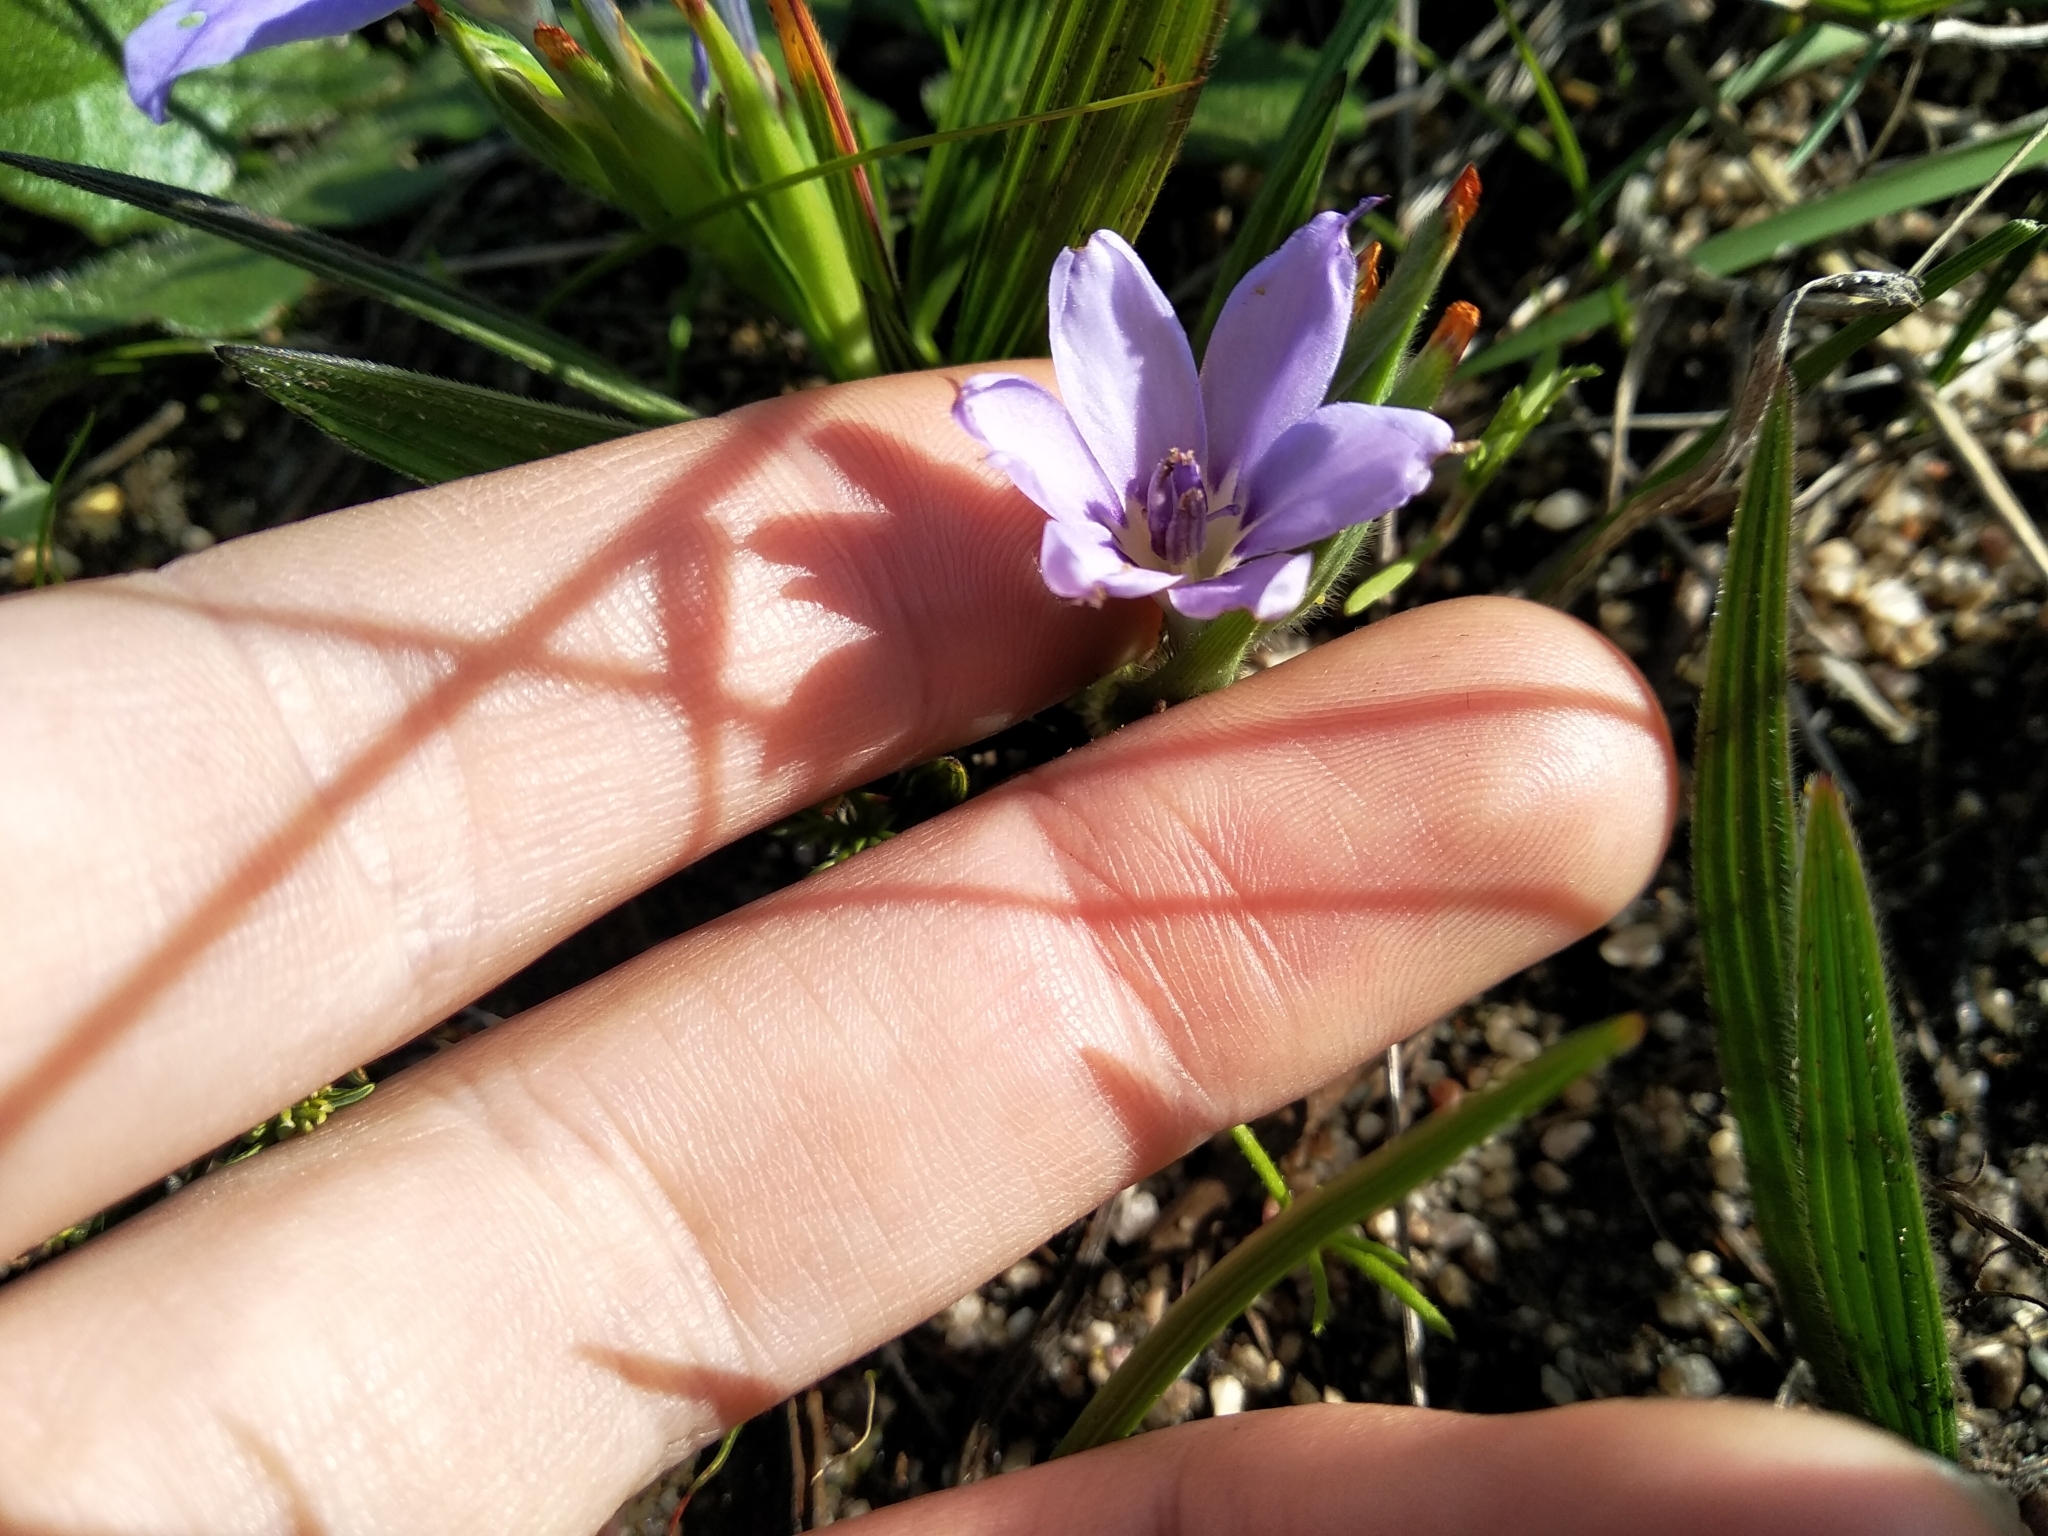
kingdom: Plantae
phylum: Tracheophyta
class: Liliopsida
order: Asparagales
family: Iridaceae
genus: Babiana
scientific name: Babiana villosula
